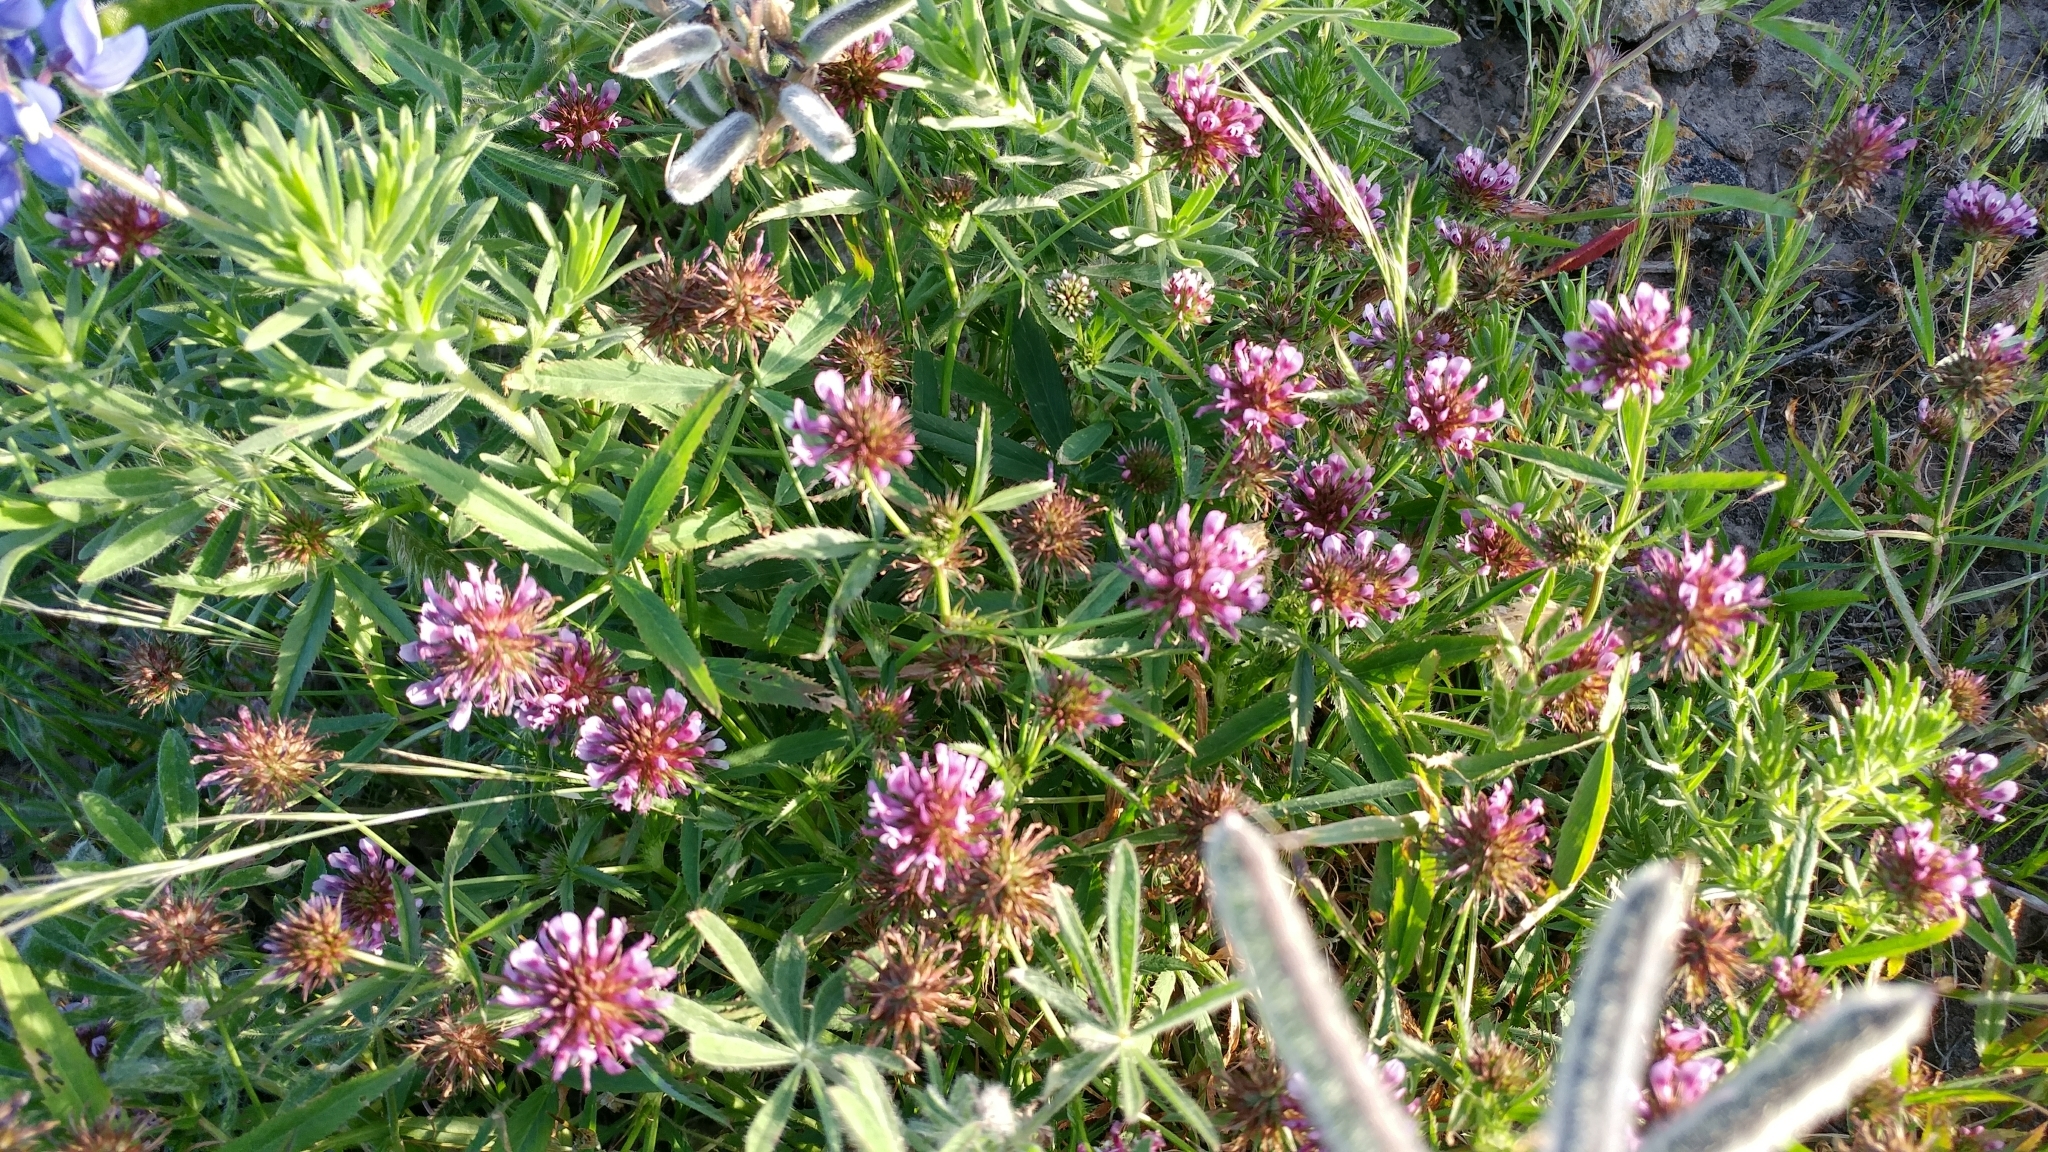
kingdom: Plantae
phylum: Tracheophyta
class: Magnoliopsida
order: Fabales
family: Fabaceae
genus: Trifolium
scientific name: Trifolium willdenovii
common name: Tomcat clover
